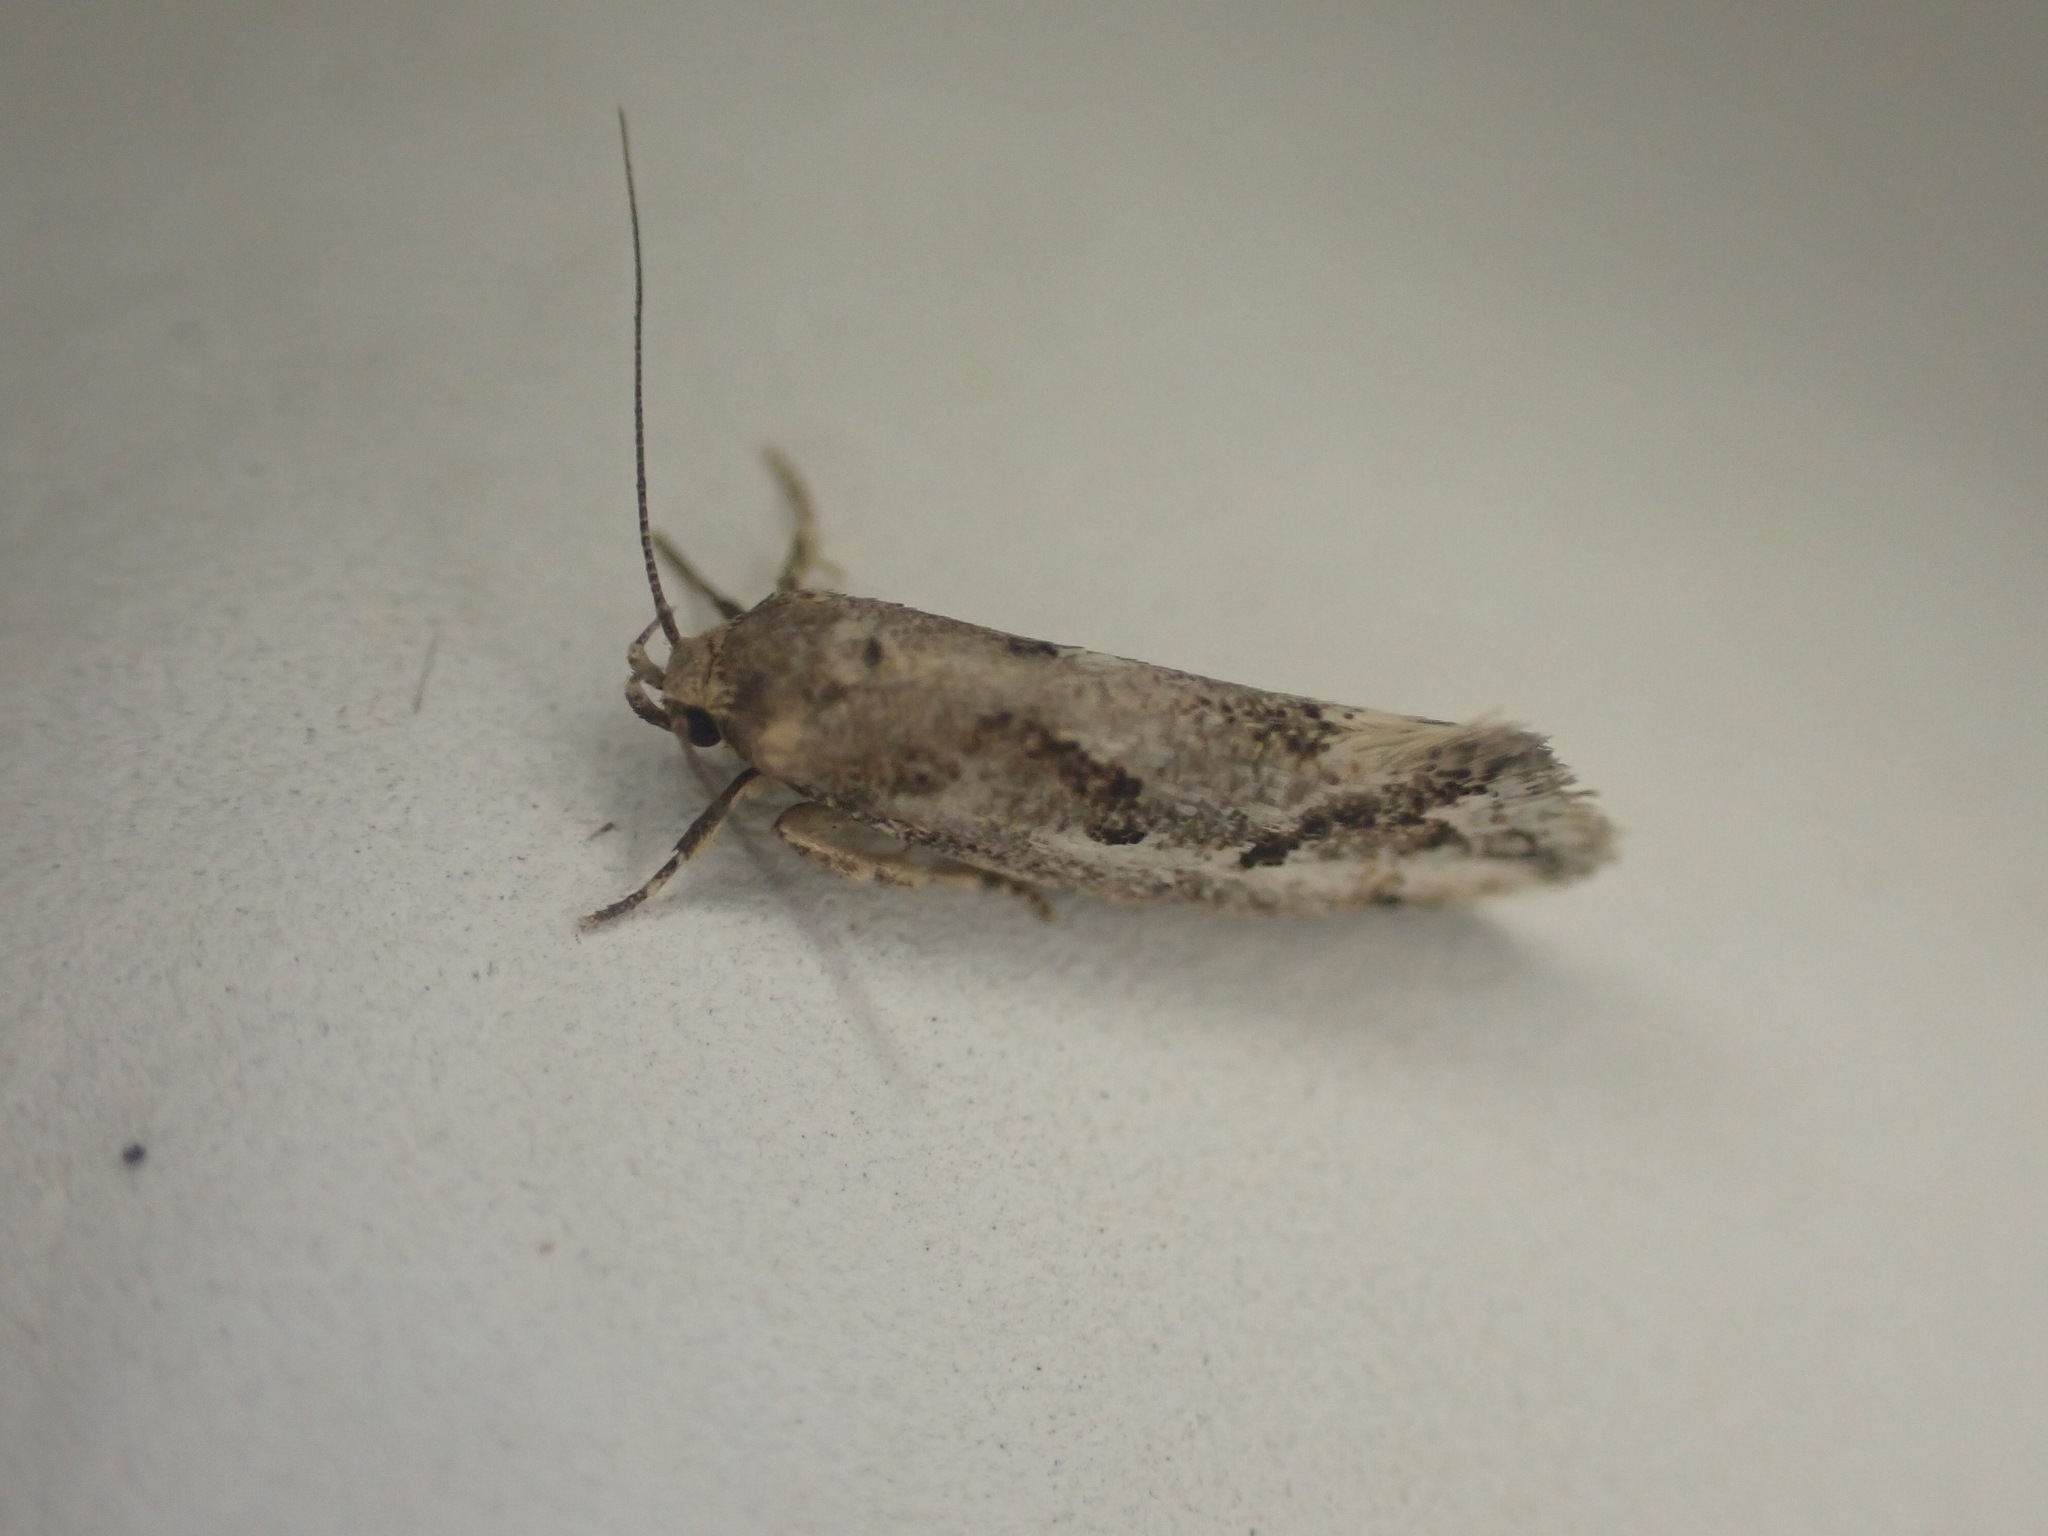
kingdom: Animalia
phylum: Arthropoda
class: Insecta
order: Lepidoptera
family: Oecophoridae
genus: Tingena
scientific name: Tingena hemimochla
